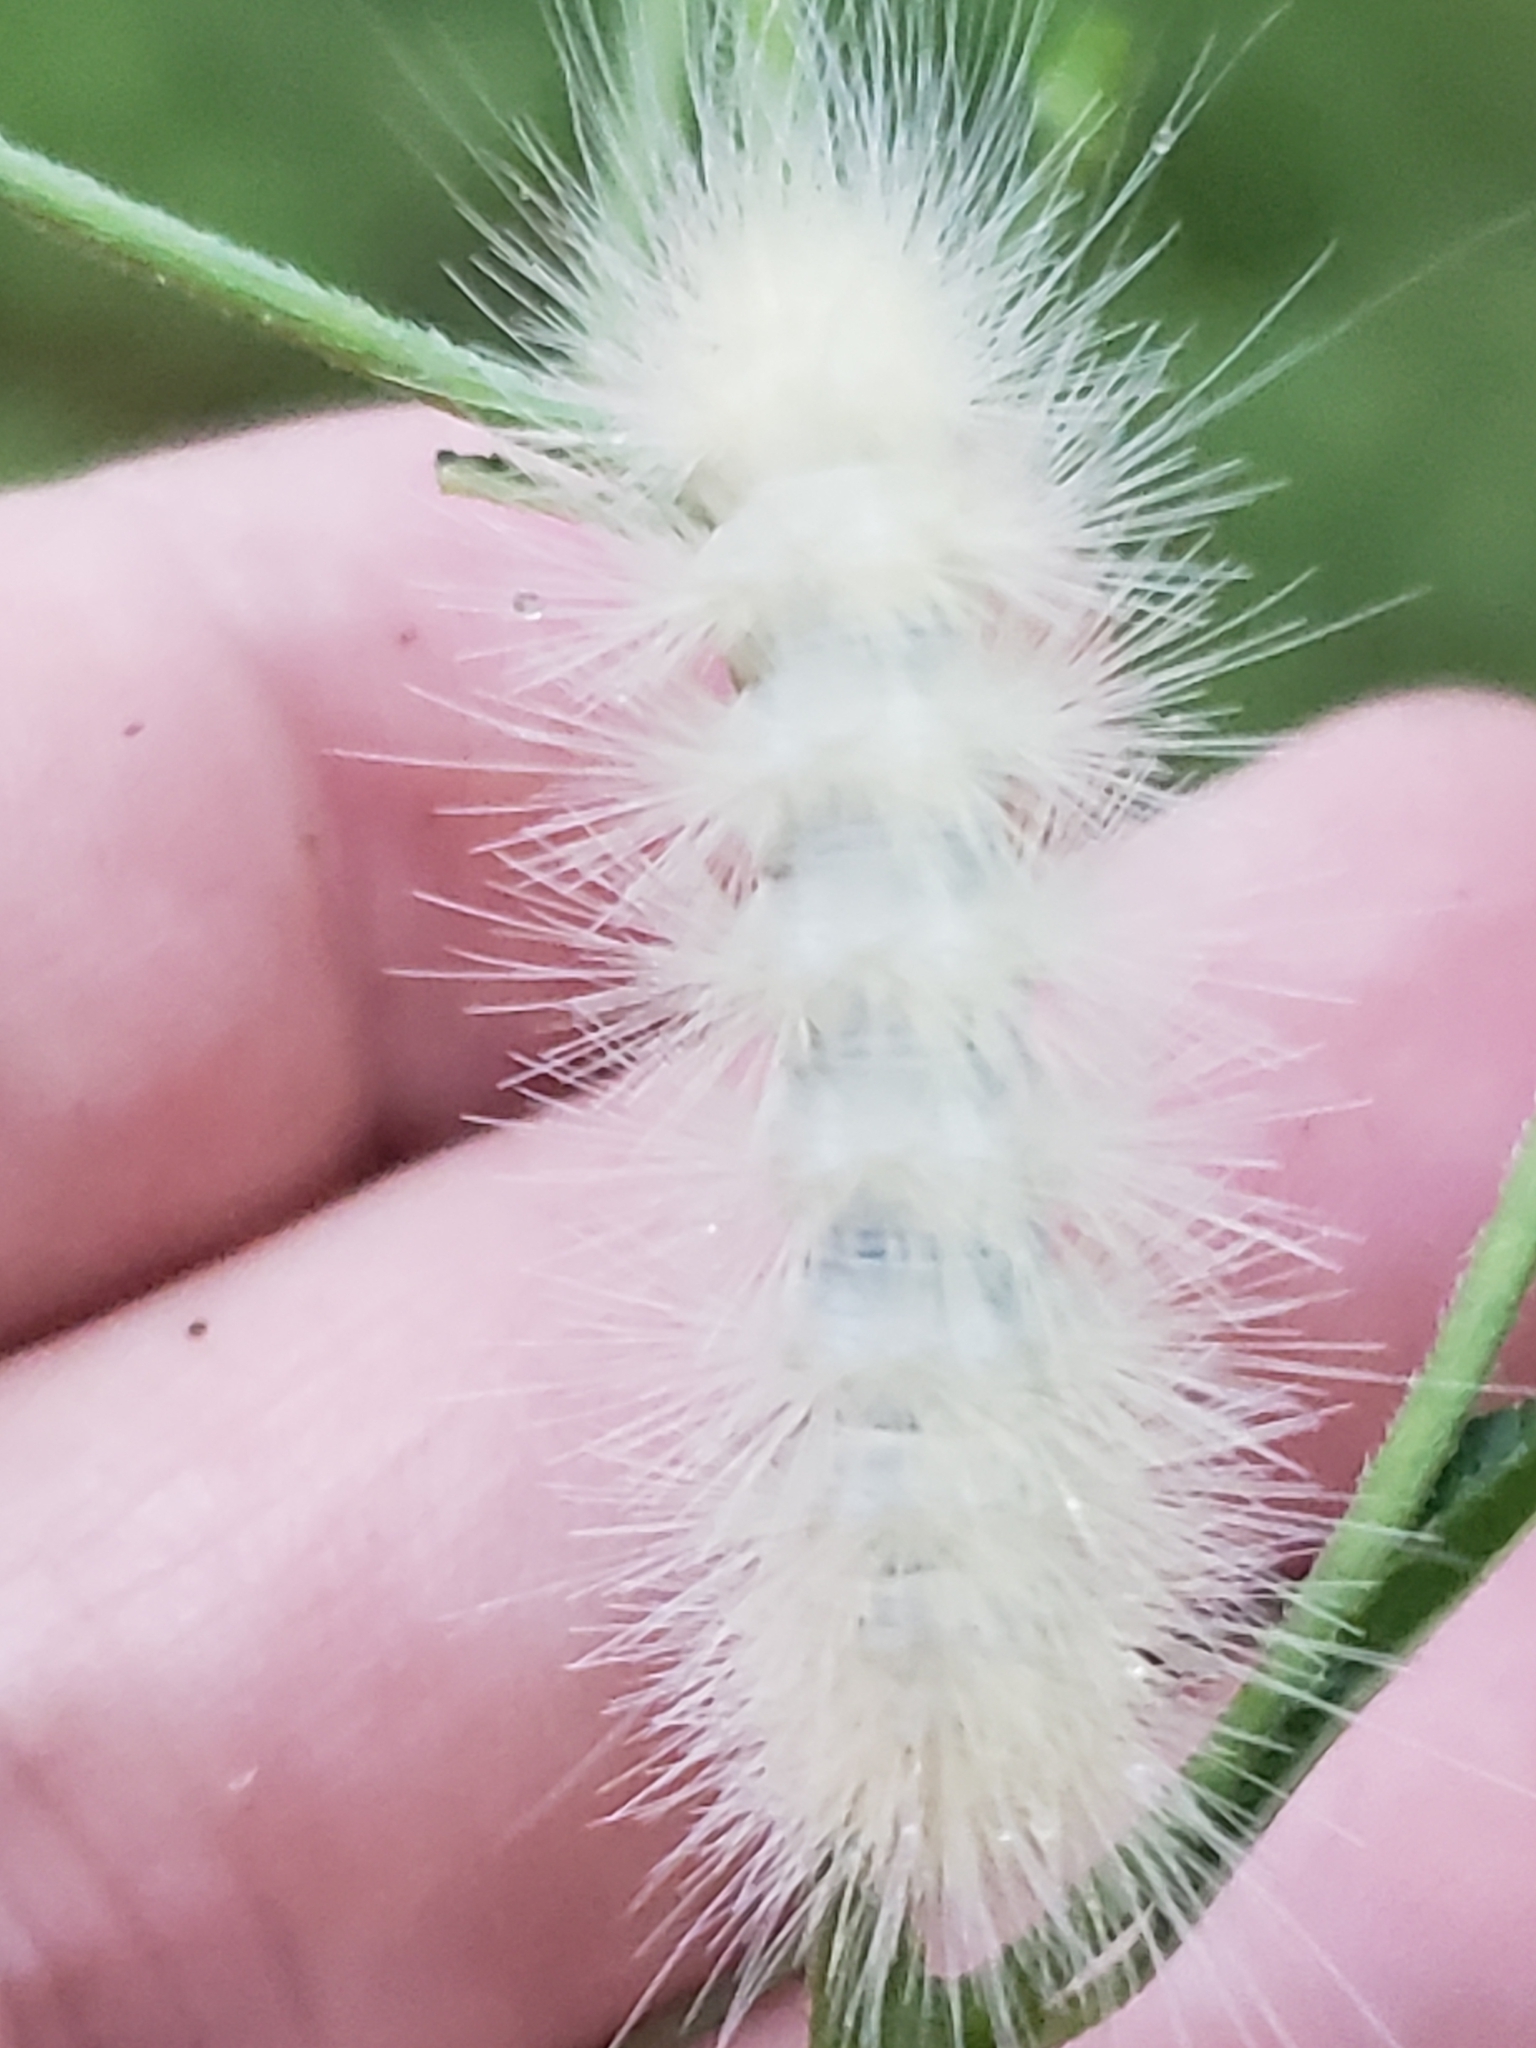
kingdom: Animalia
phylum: Arthropoda
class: Insecta
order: Lepidoptera
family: Erebidae
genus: Spilosoma
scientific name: Spilosoma virginica
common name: Virginia tiger moth
